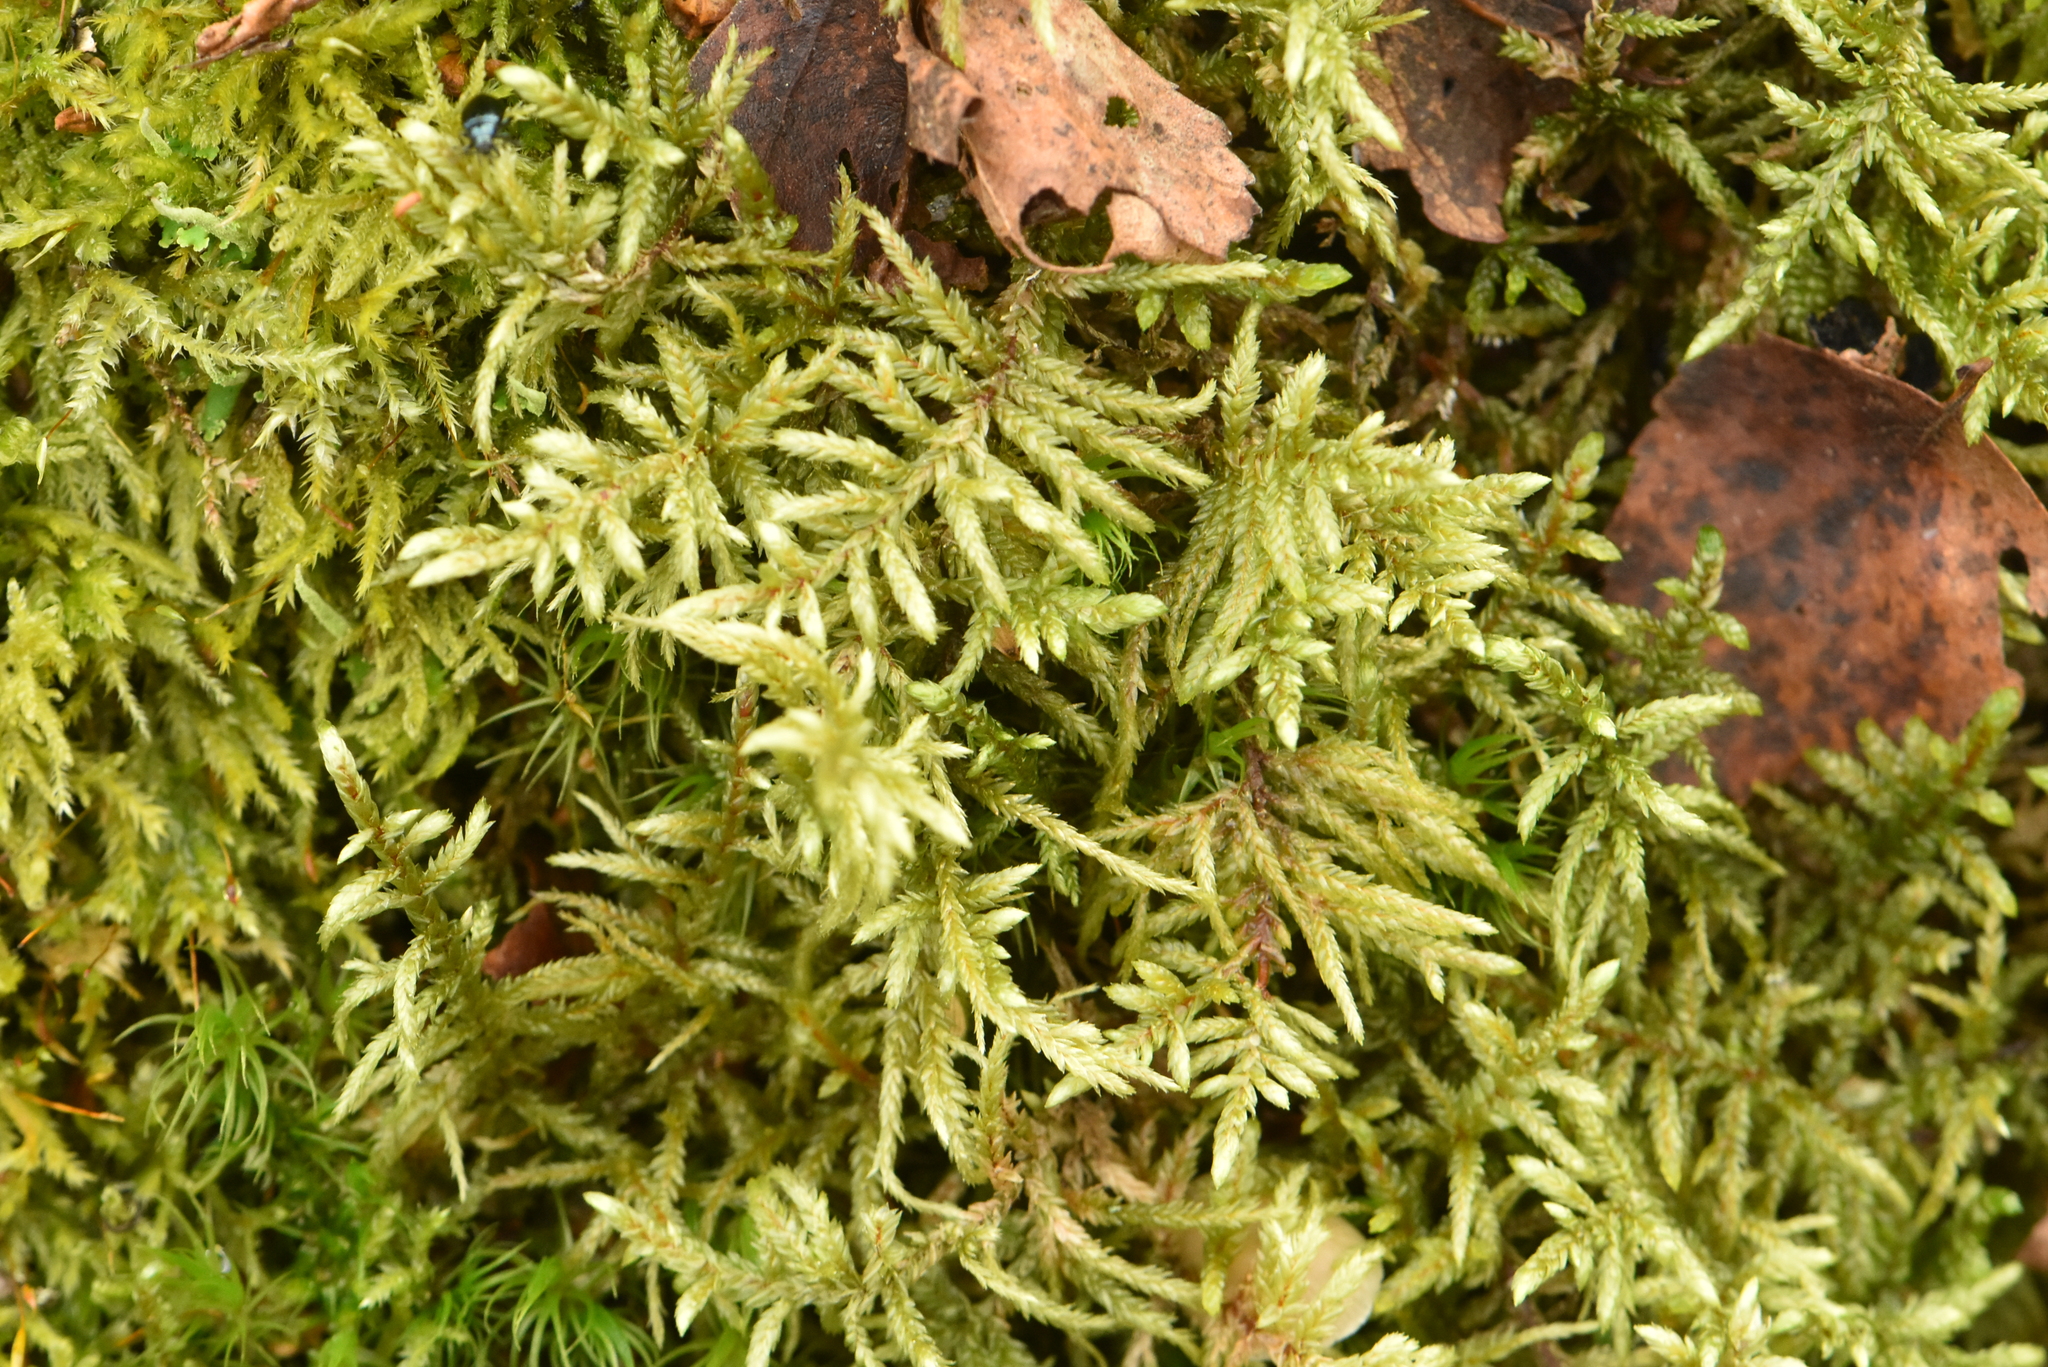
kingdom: Plantae
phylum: Bryophyta
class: Bryopsida
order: Hypnales
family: Hylocomiaceae
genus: Pleurozium
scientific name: Pleurozium schreberi
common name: Red-stemmed feather moss
